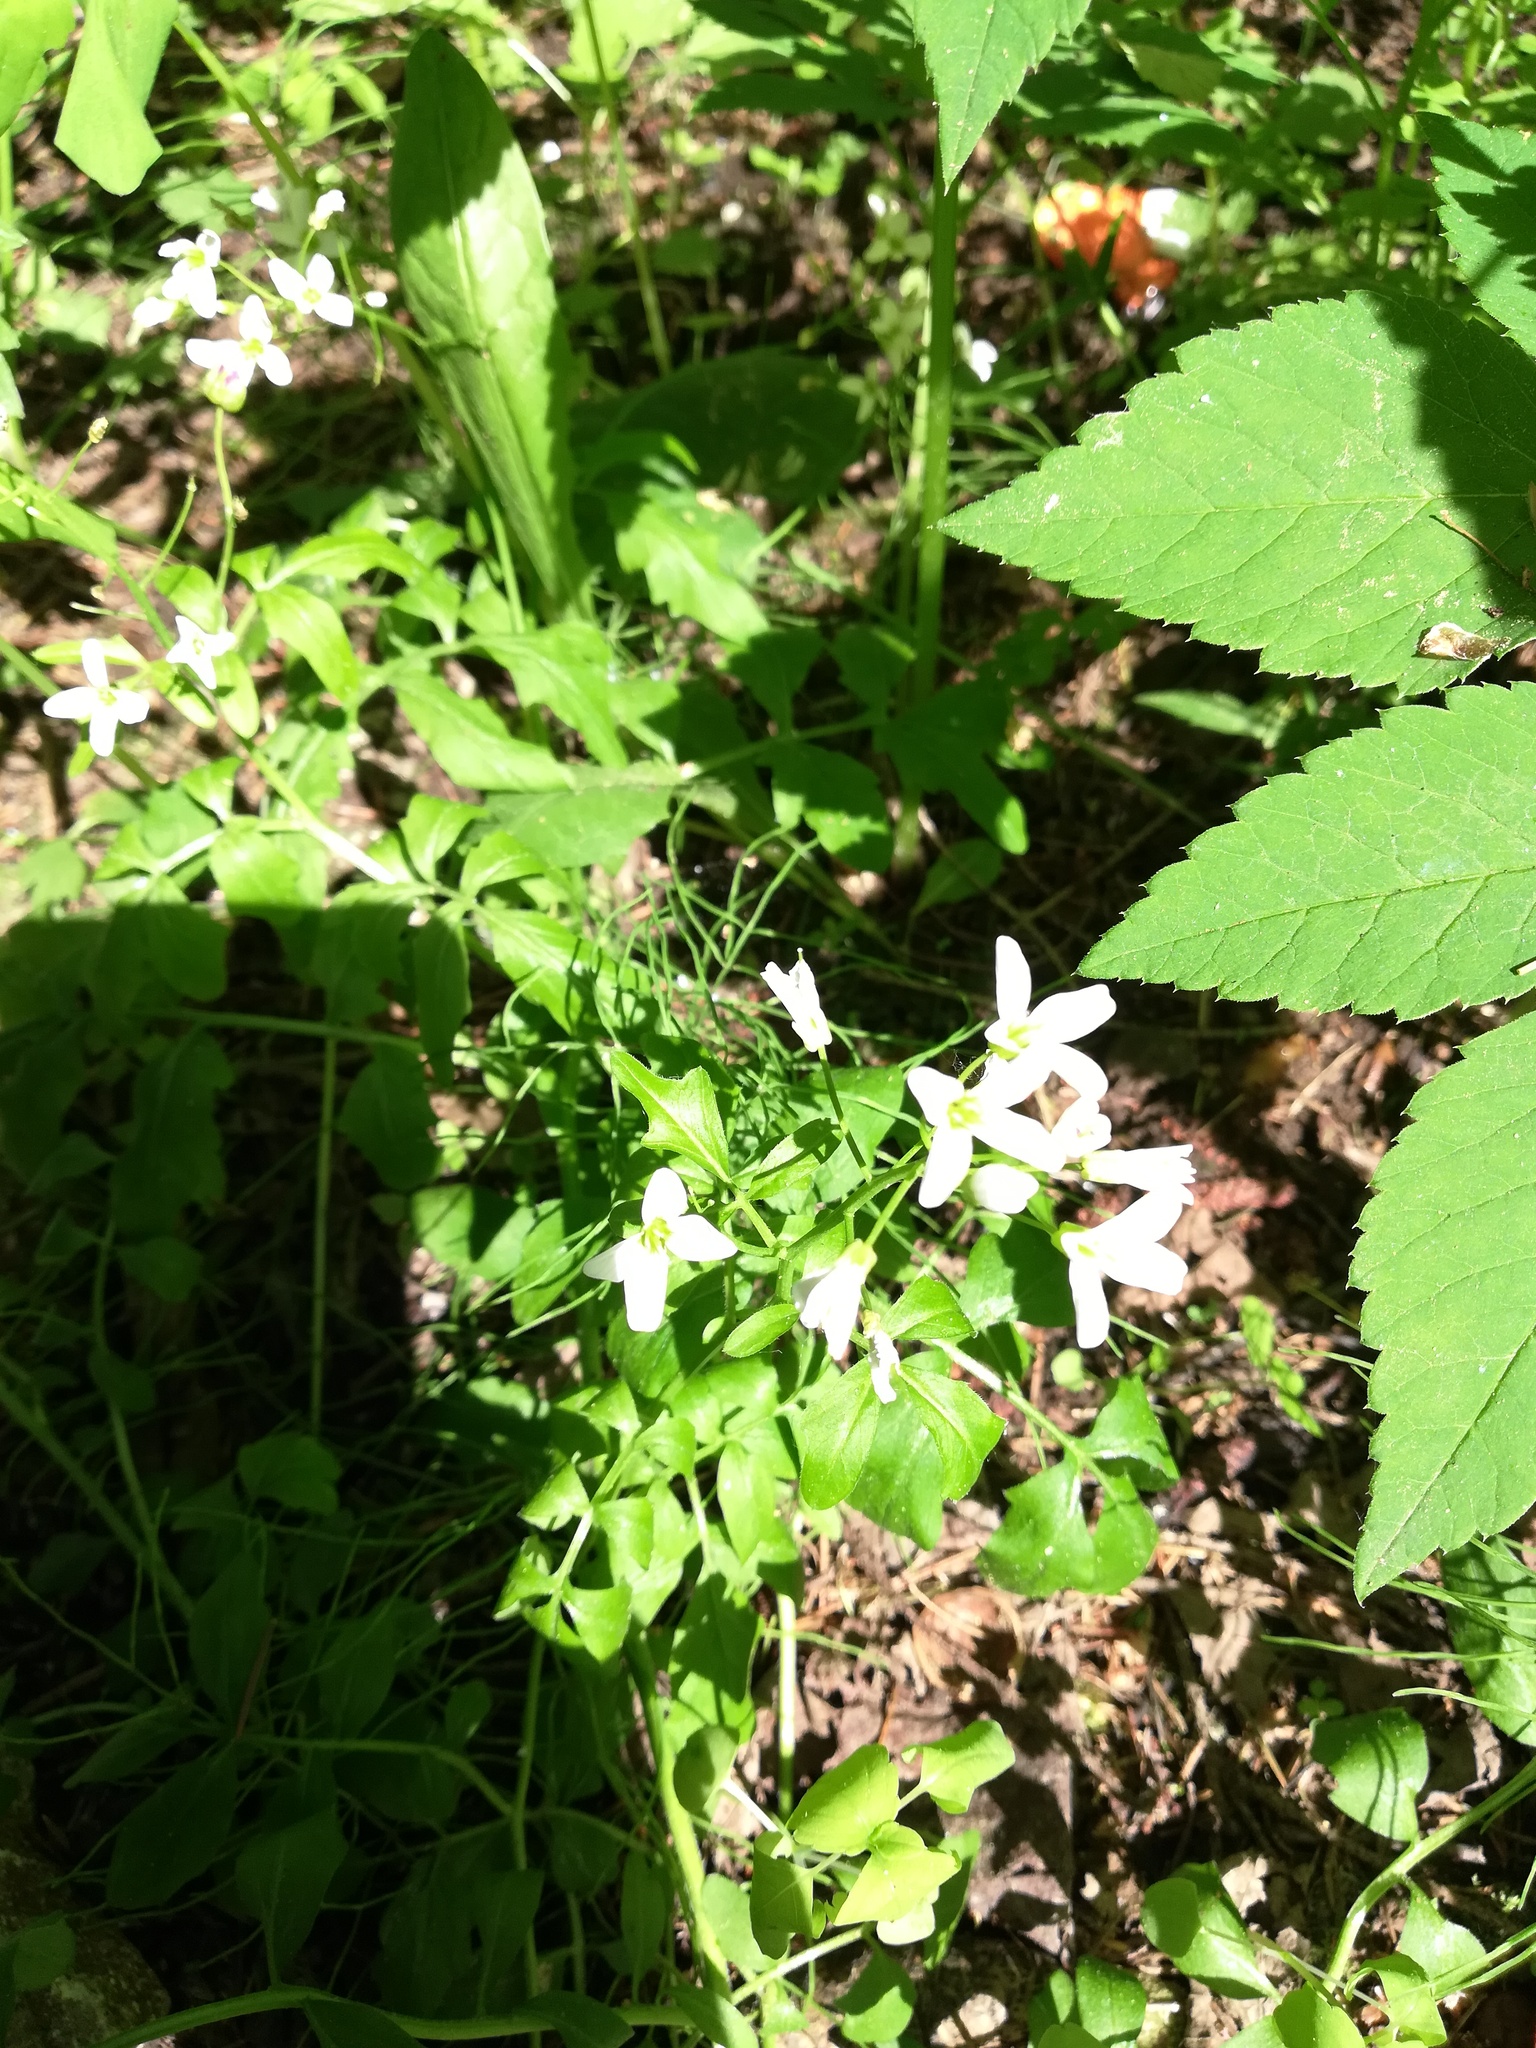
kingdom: Plantae
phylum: Tracheophyta
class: Magnoliopsida
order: Brassicales
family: Brassicaceae
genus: Cardamine
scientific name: Cardamine amara
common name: Large bitter-cress
